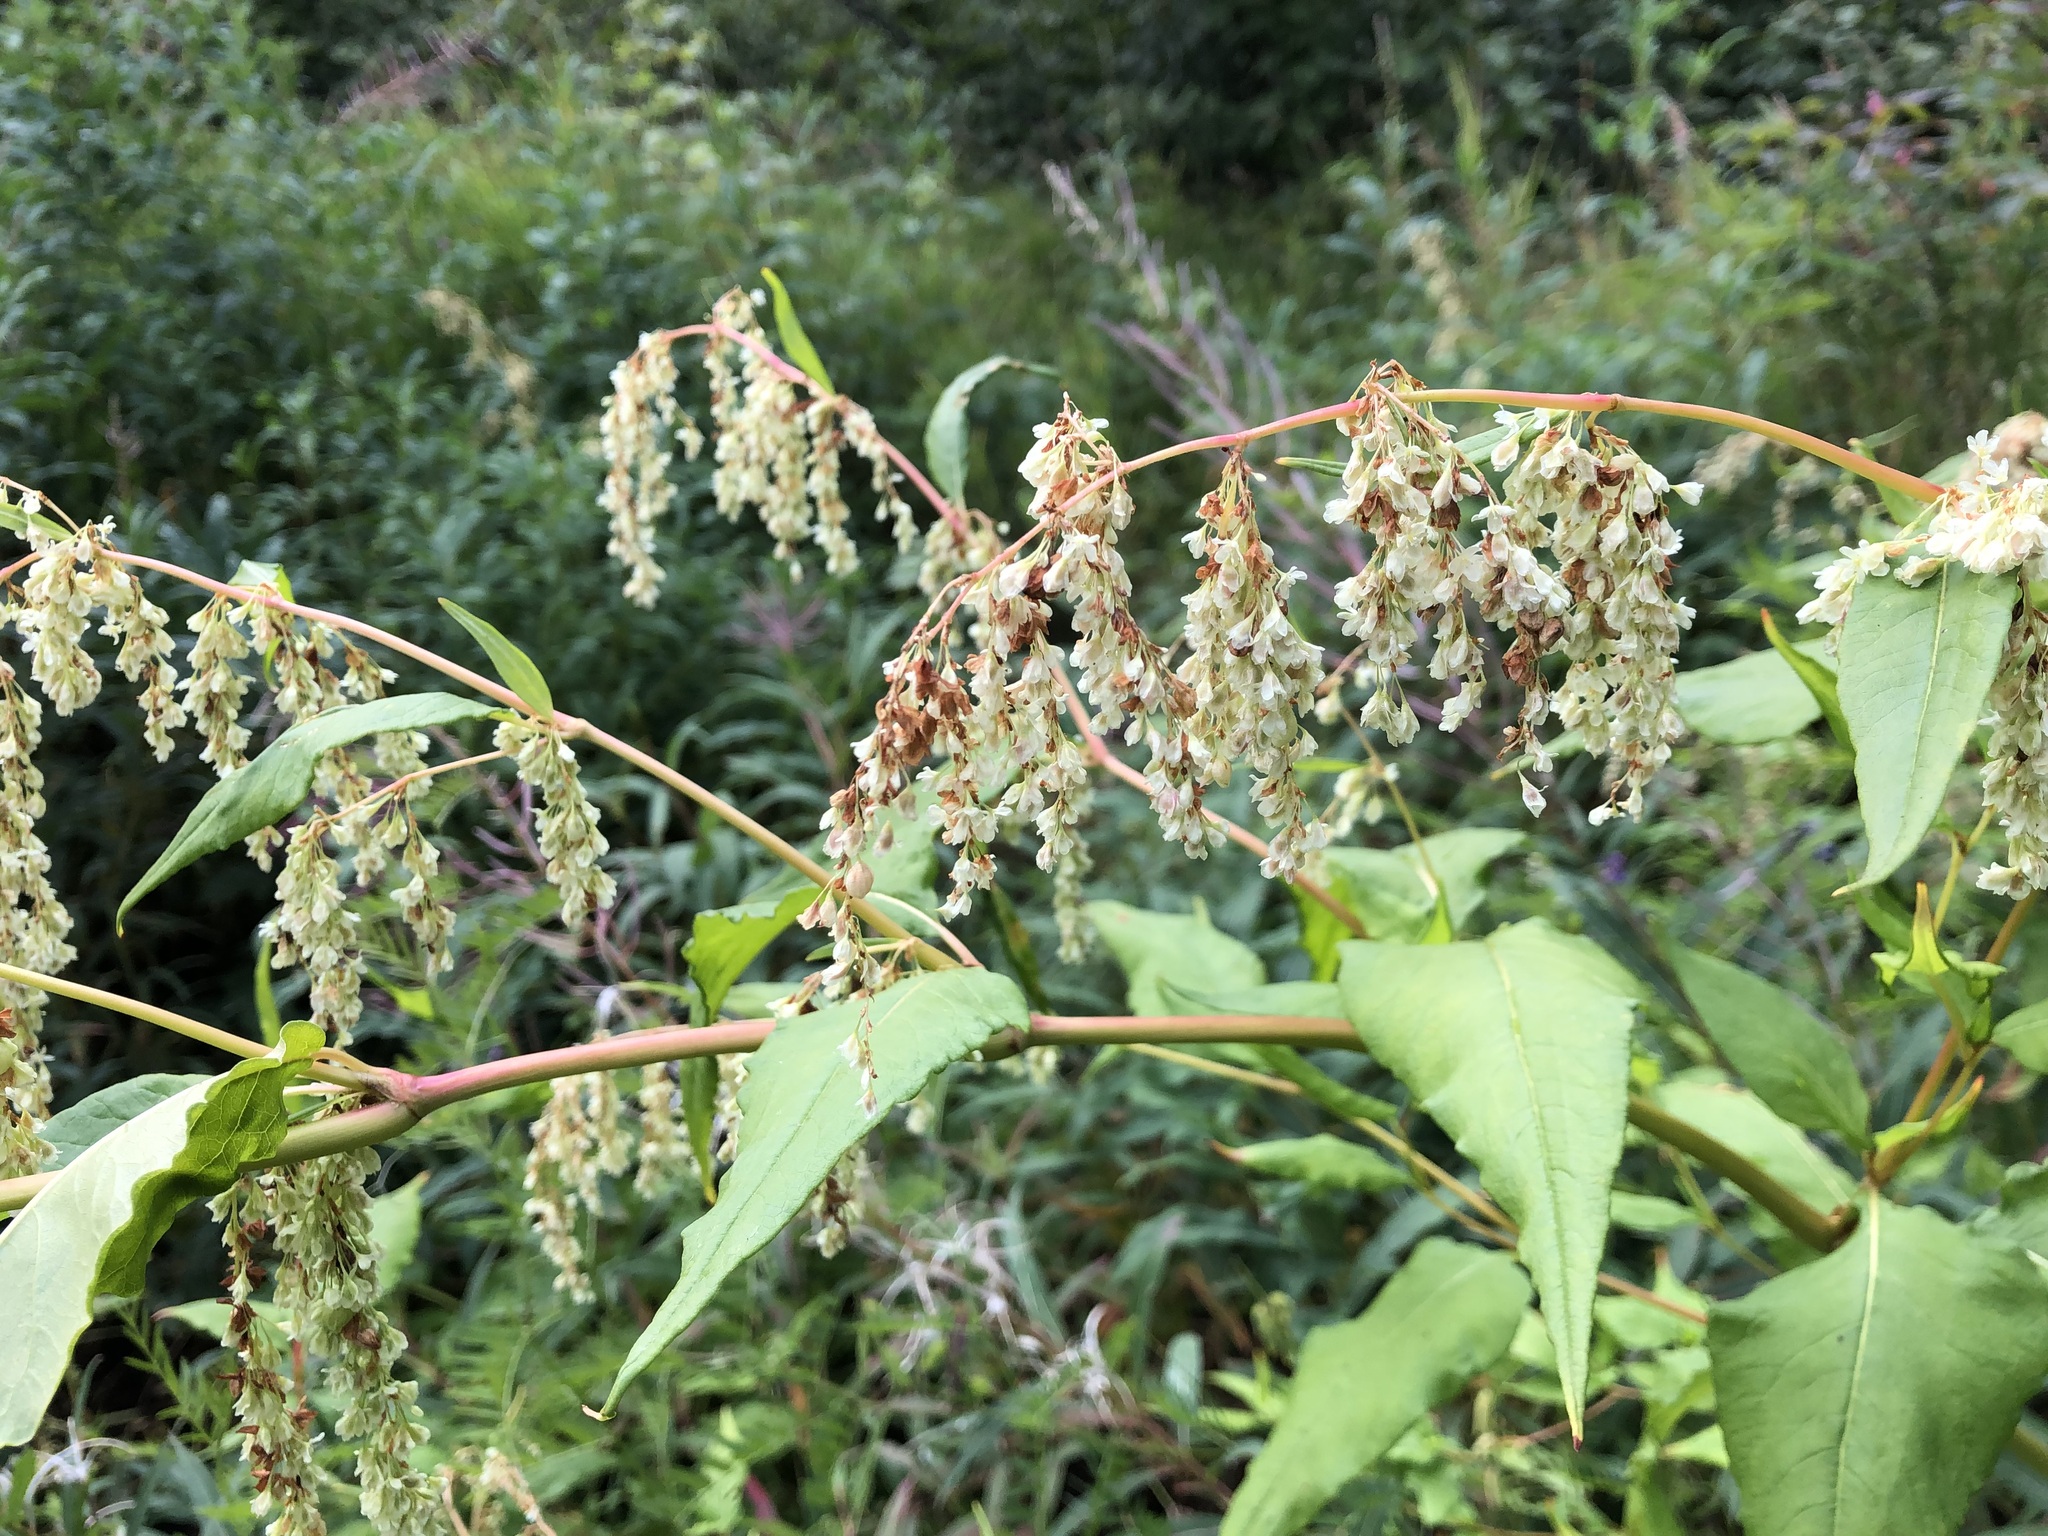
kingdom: Plantae
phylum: Tracheophyta
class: Magnoliopsida
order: Caryophyllales
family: Polygonaceae
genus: Koenigia
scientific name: Koenigia lapathifolia
